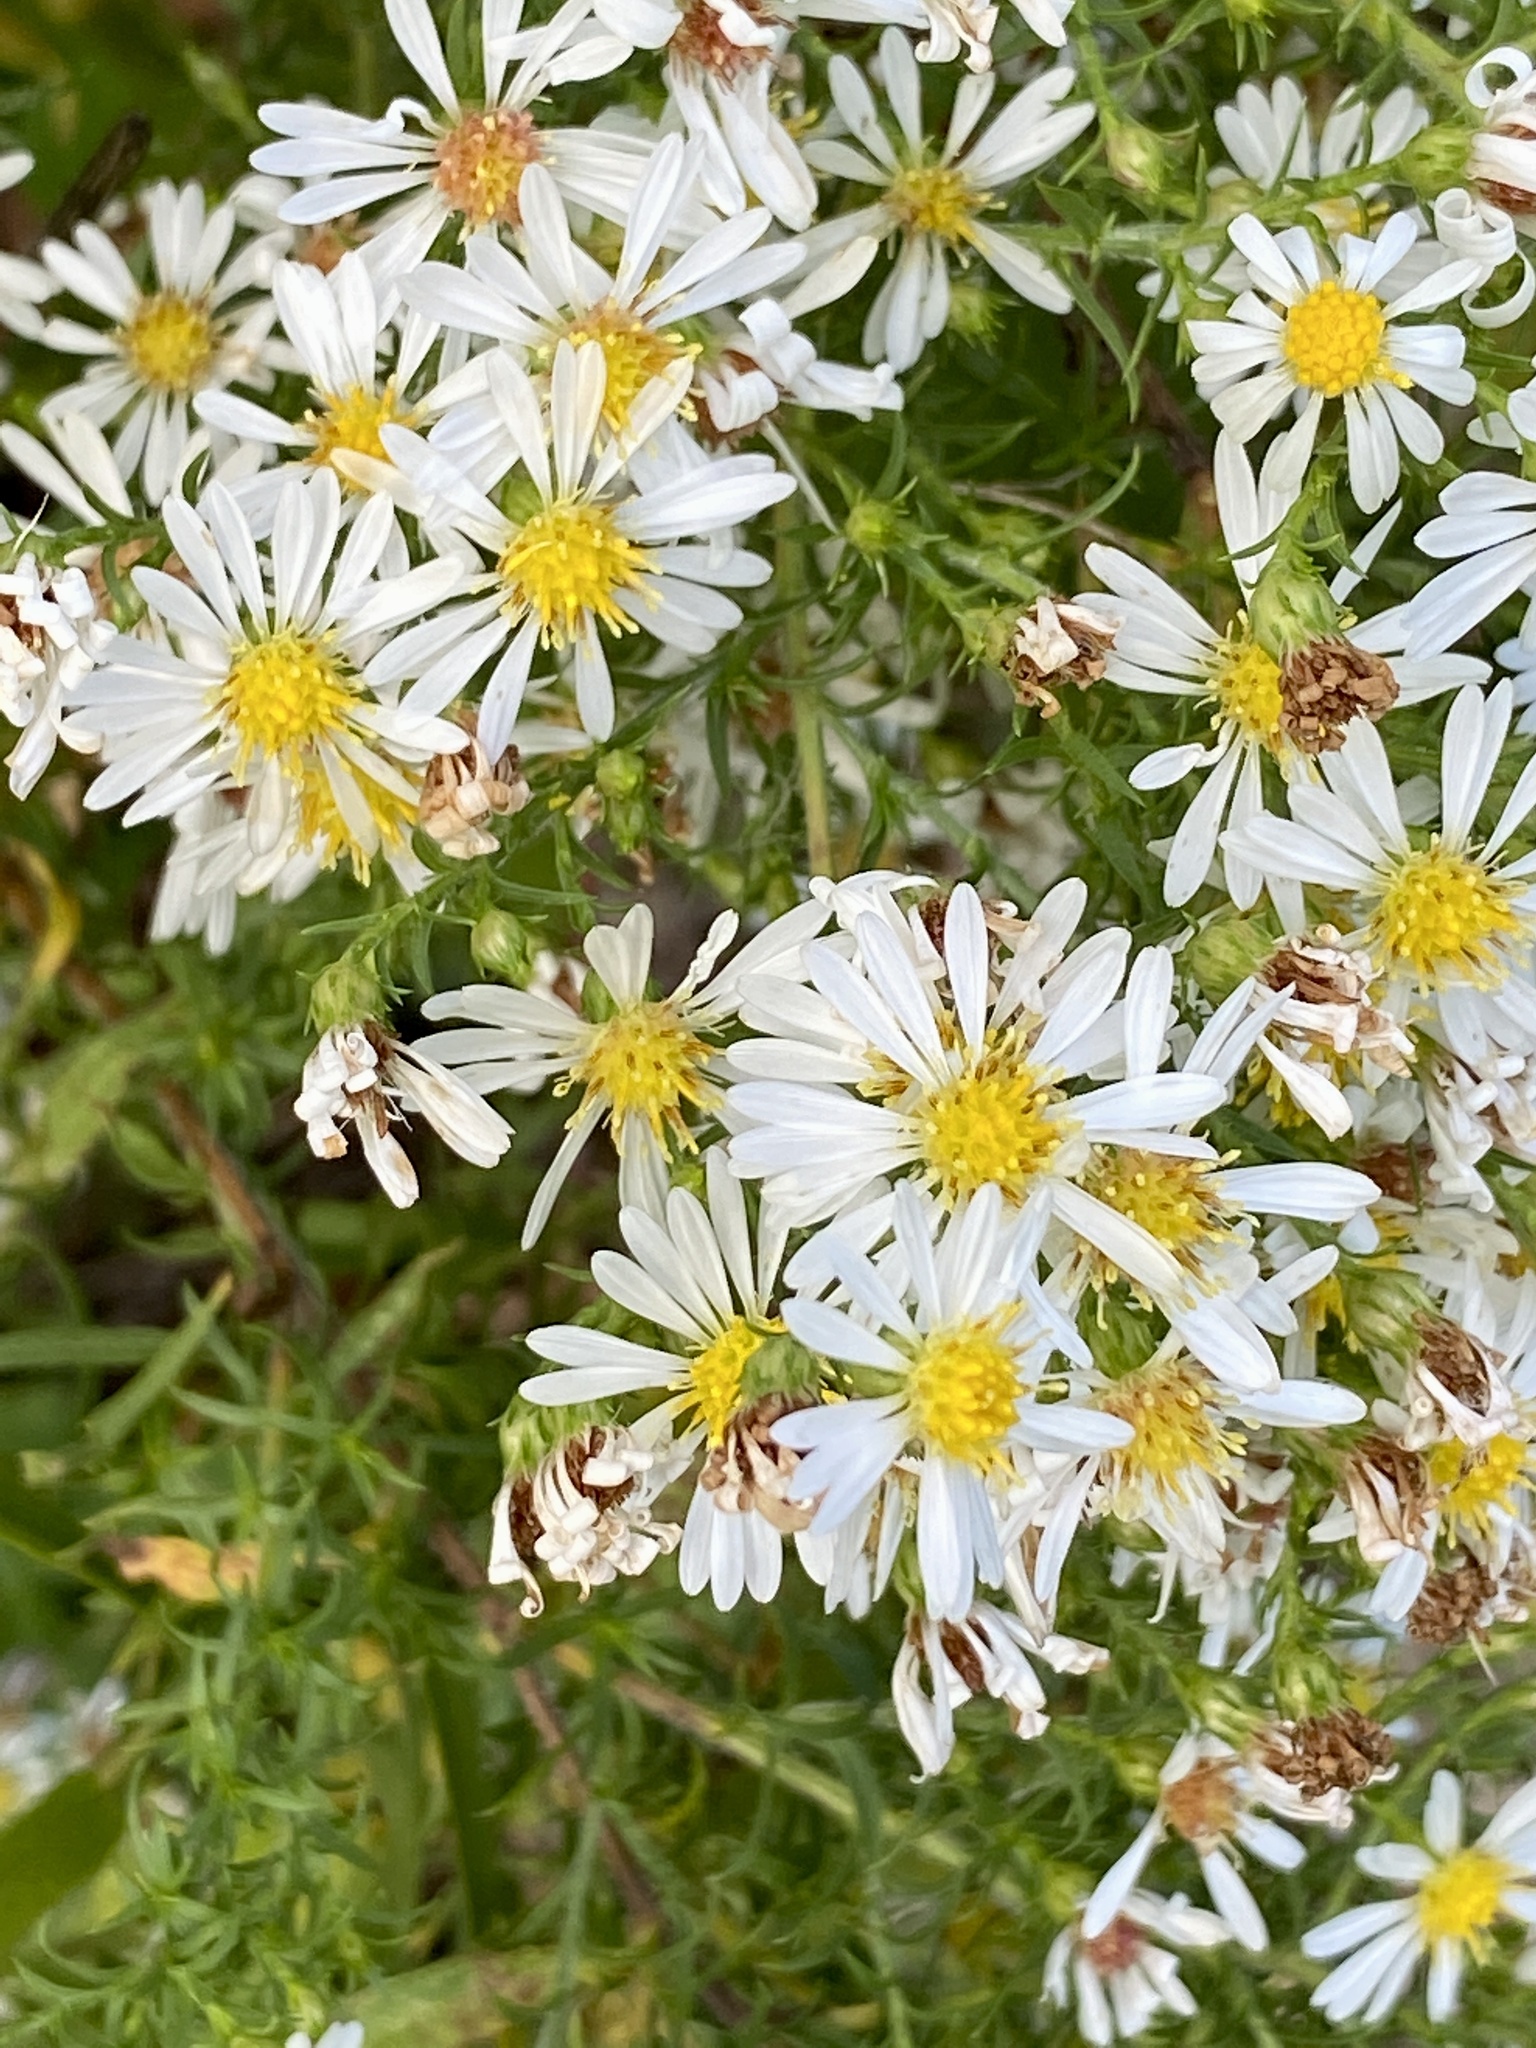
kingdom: Plantae
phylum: Tracheophyta
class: Magnoliopsida
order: Asterales
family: Asteraceae
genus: Symphyotrichum
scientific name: Symphyotrichum pilosum
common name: Awl aster
